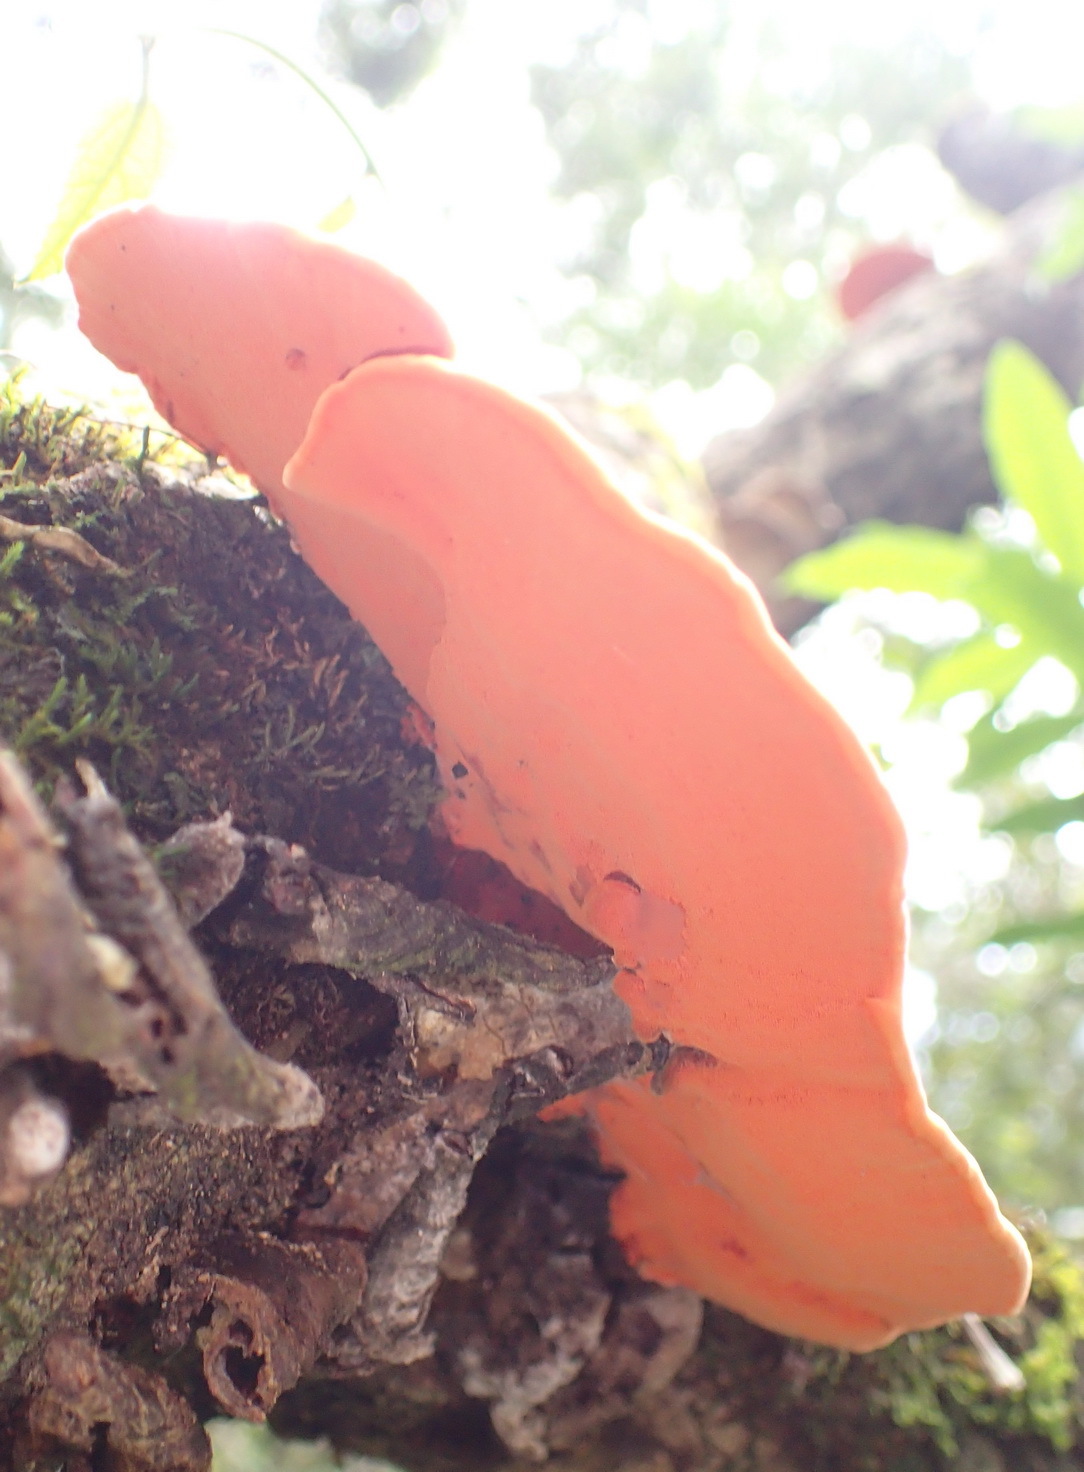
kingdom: Fungi
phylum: Basidiomycota
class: Agaricomycetes
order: Polyporales
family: Polyporaceae
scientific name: Polyporaceae
